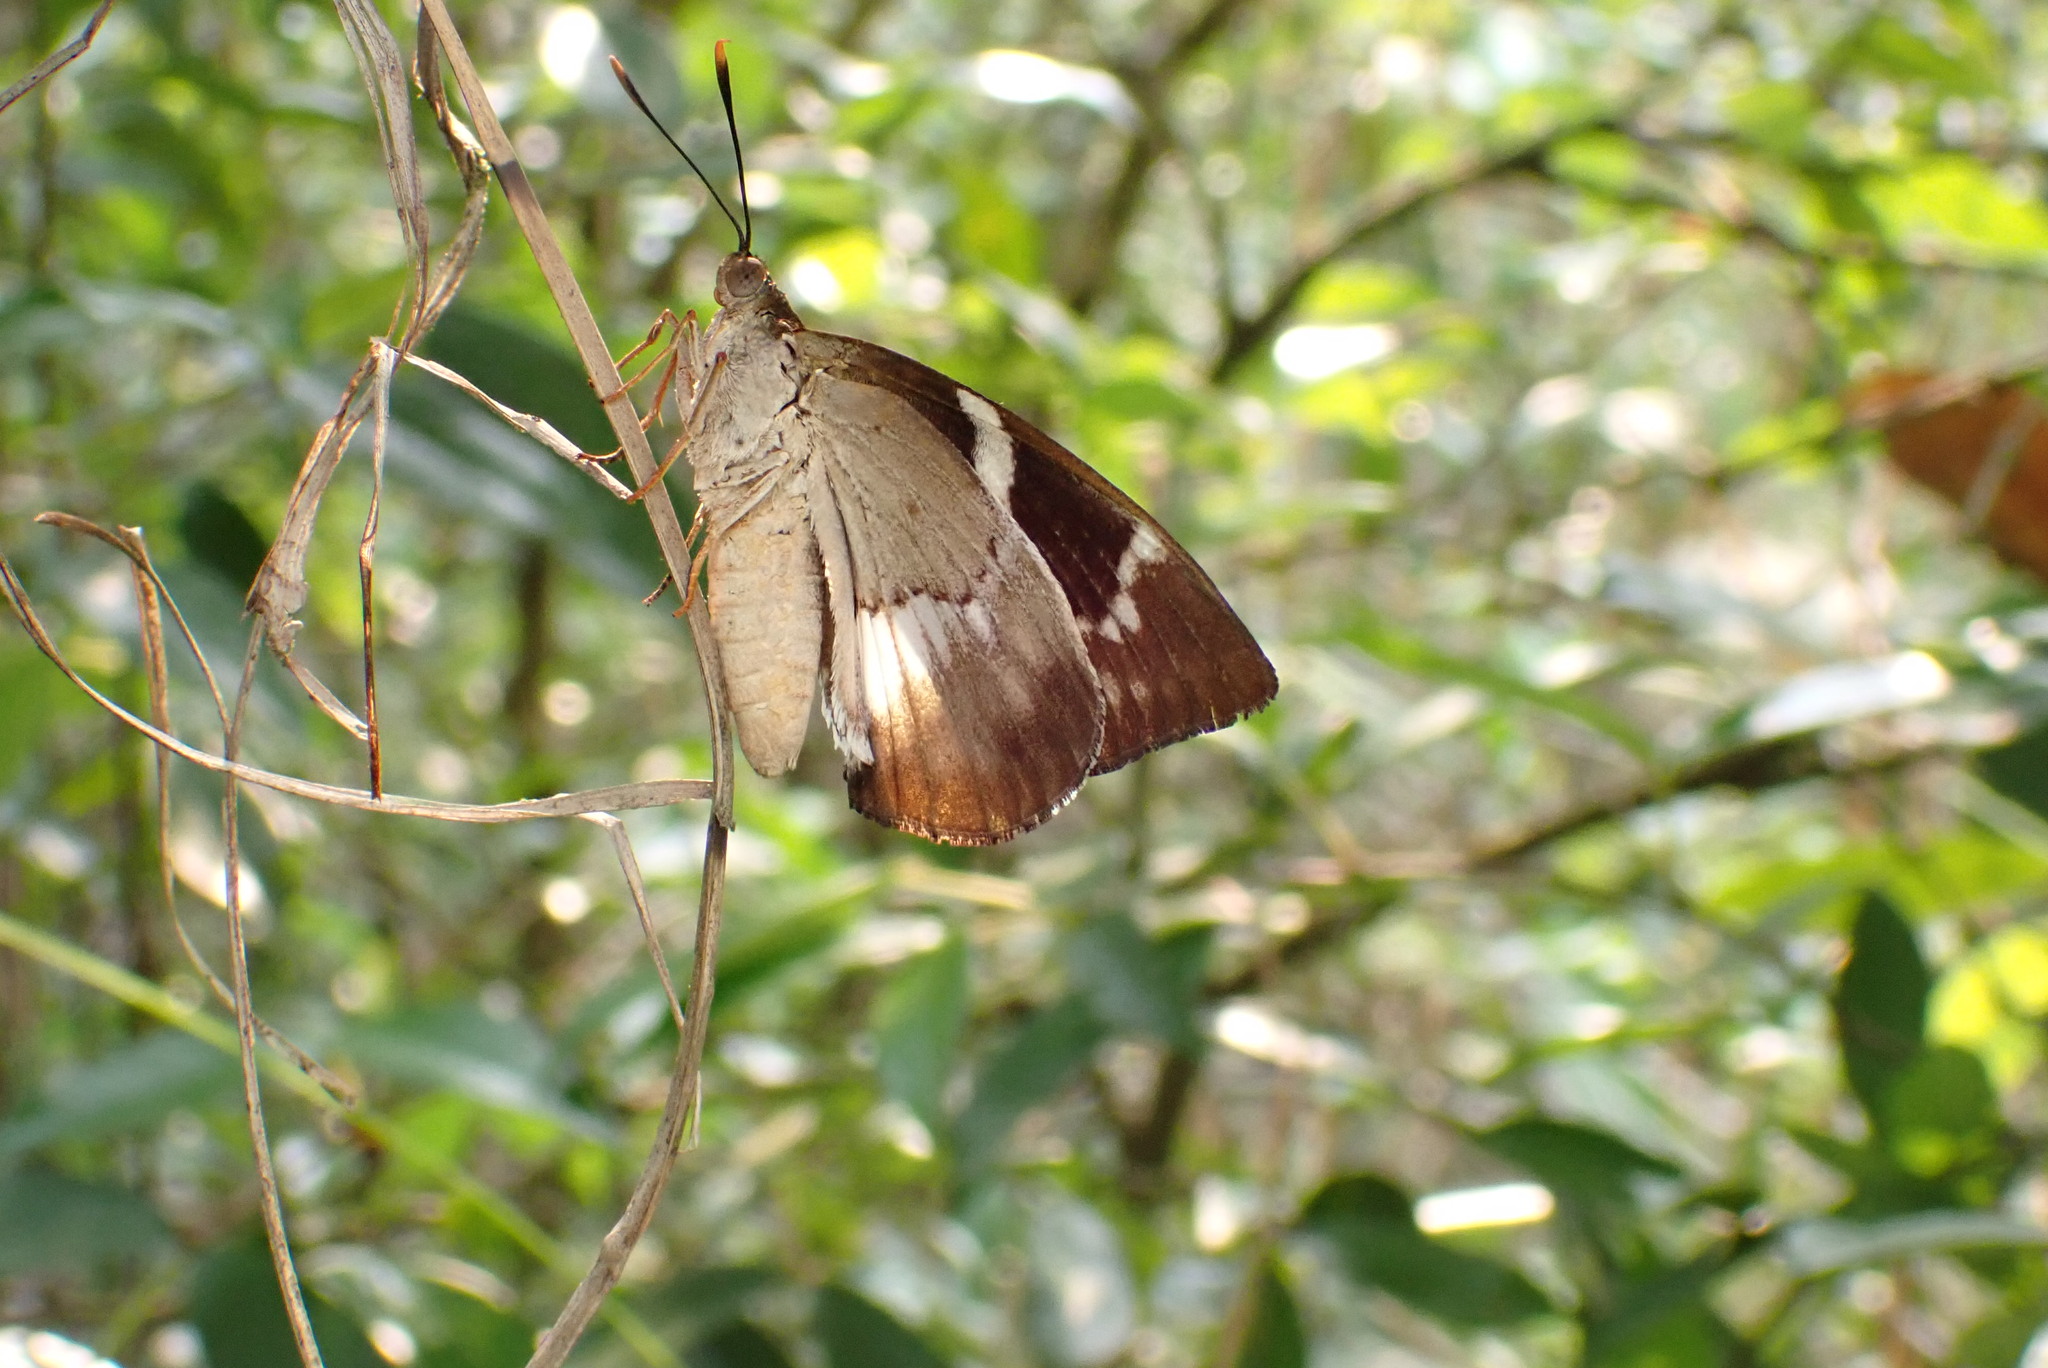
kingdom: Animalia
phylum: Arthropoda
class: Insecta
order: Lepidoptera
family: Castniidae
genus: Castniomera
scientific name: Castniomera atymnius
